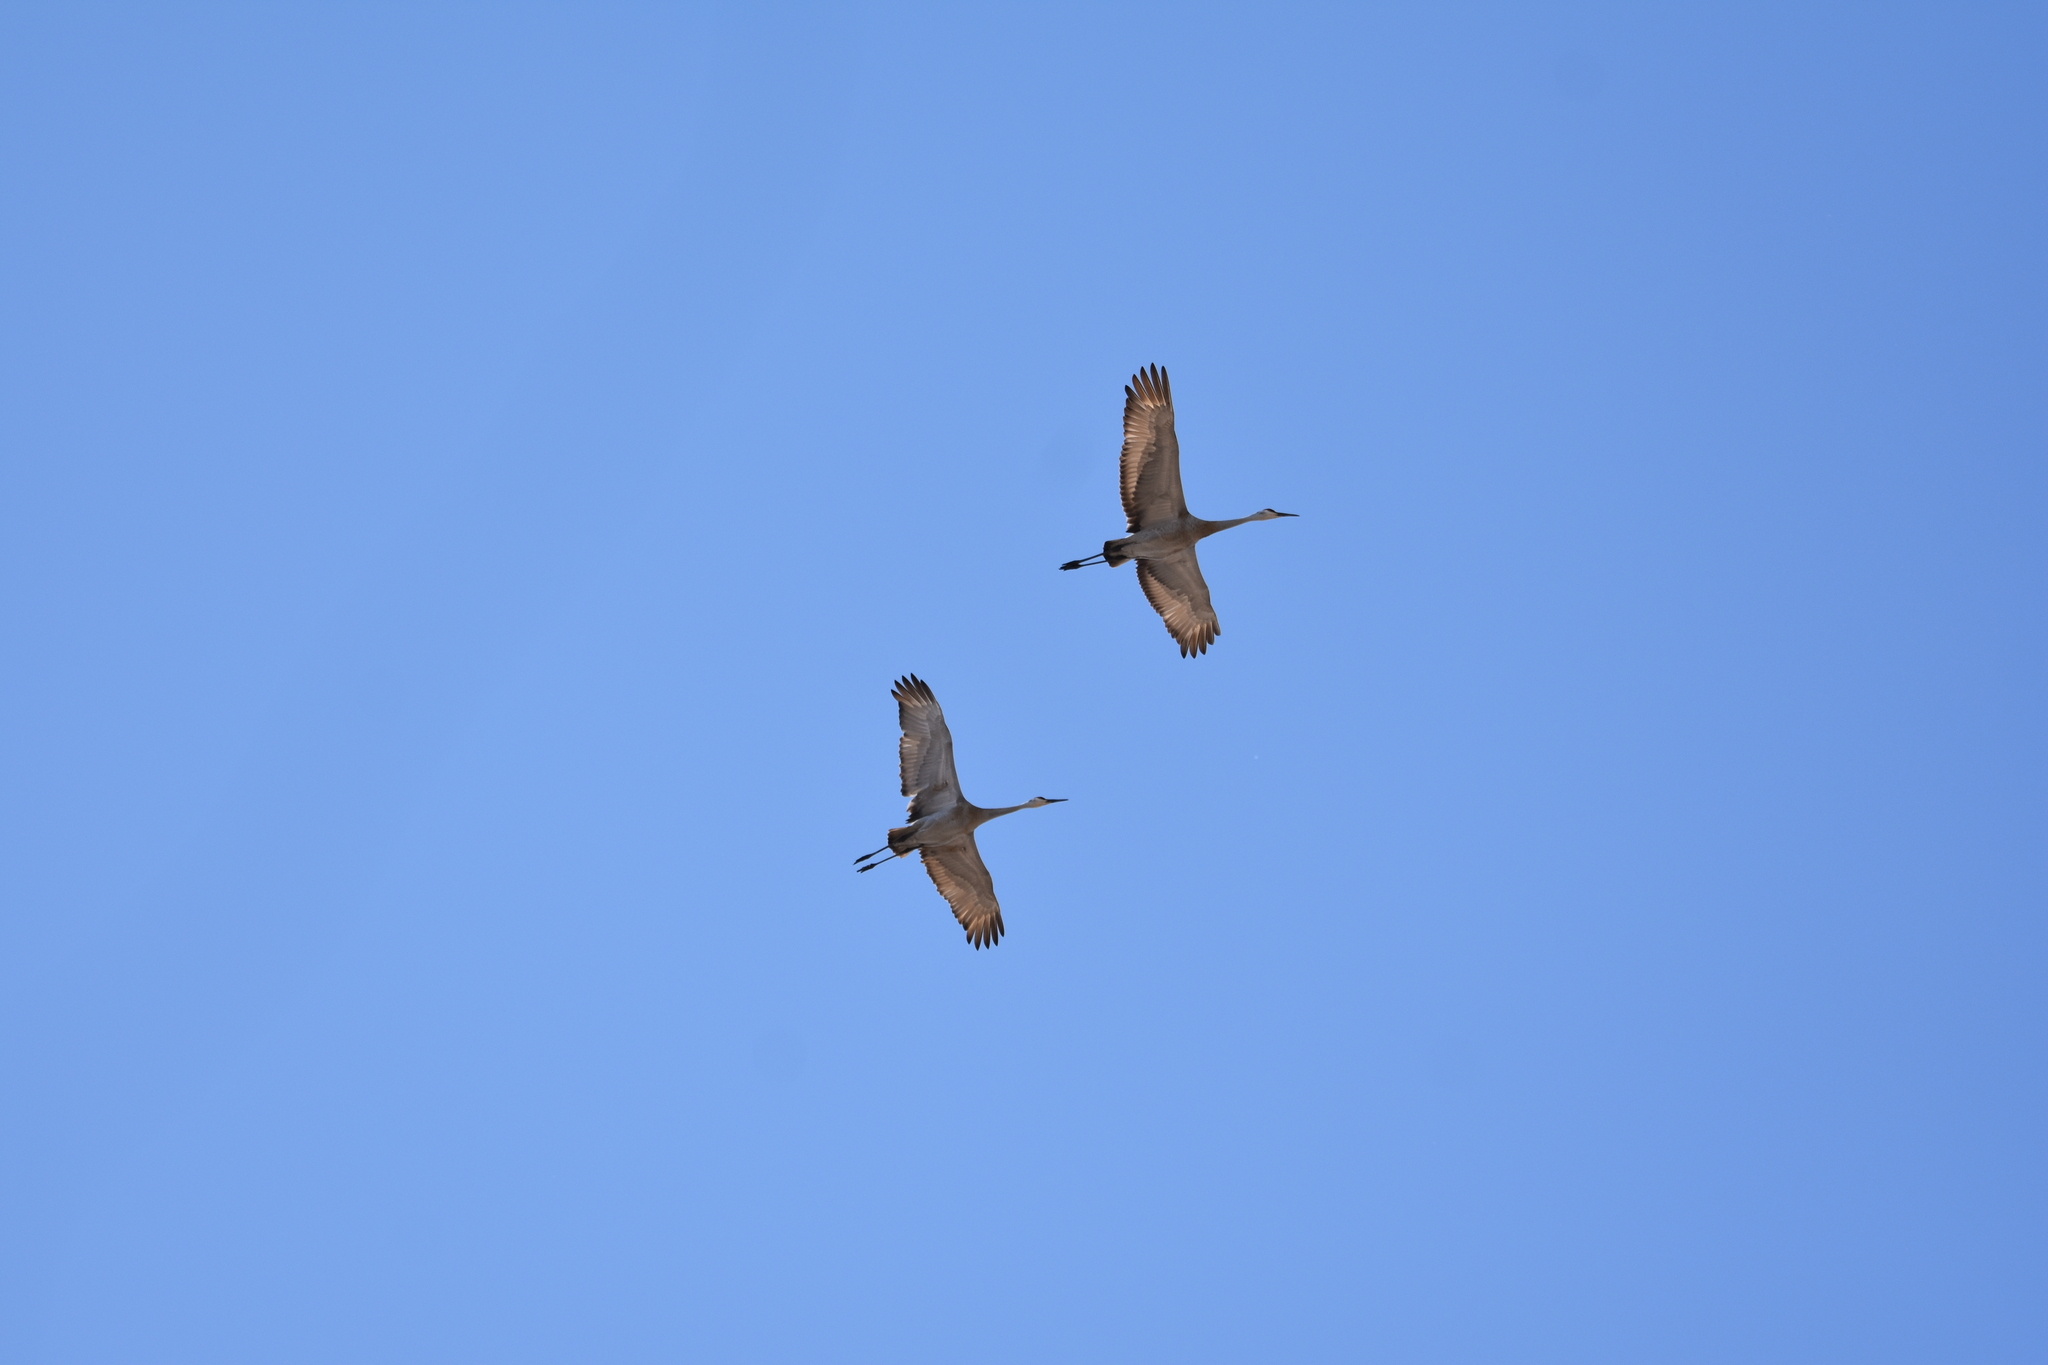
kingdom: Animalia
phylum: Chordata
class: Aves
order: Gruiformes
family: Gruidae
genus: Grus
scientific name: Grus canadensis
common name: Sandhill crane
